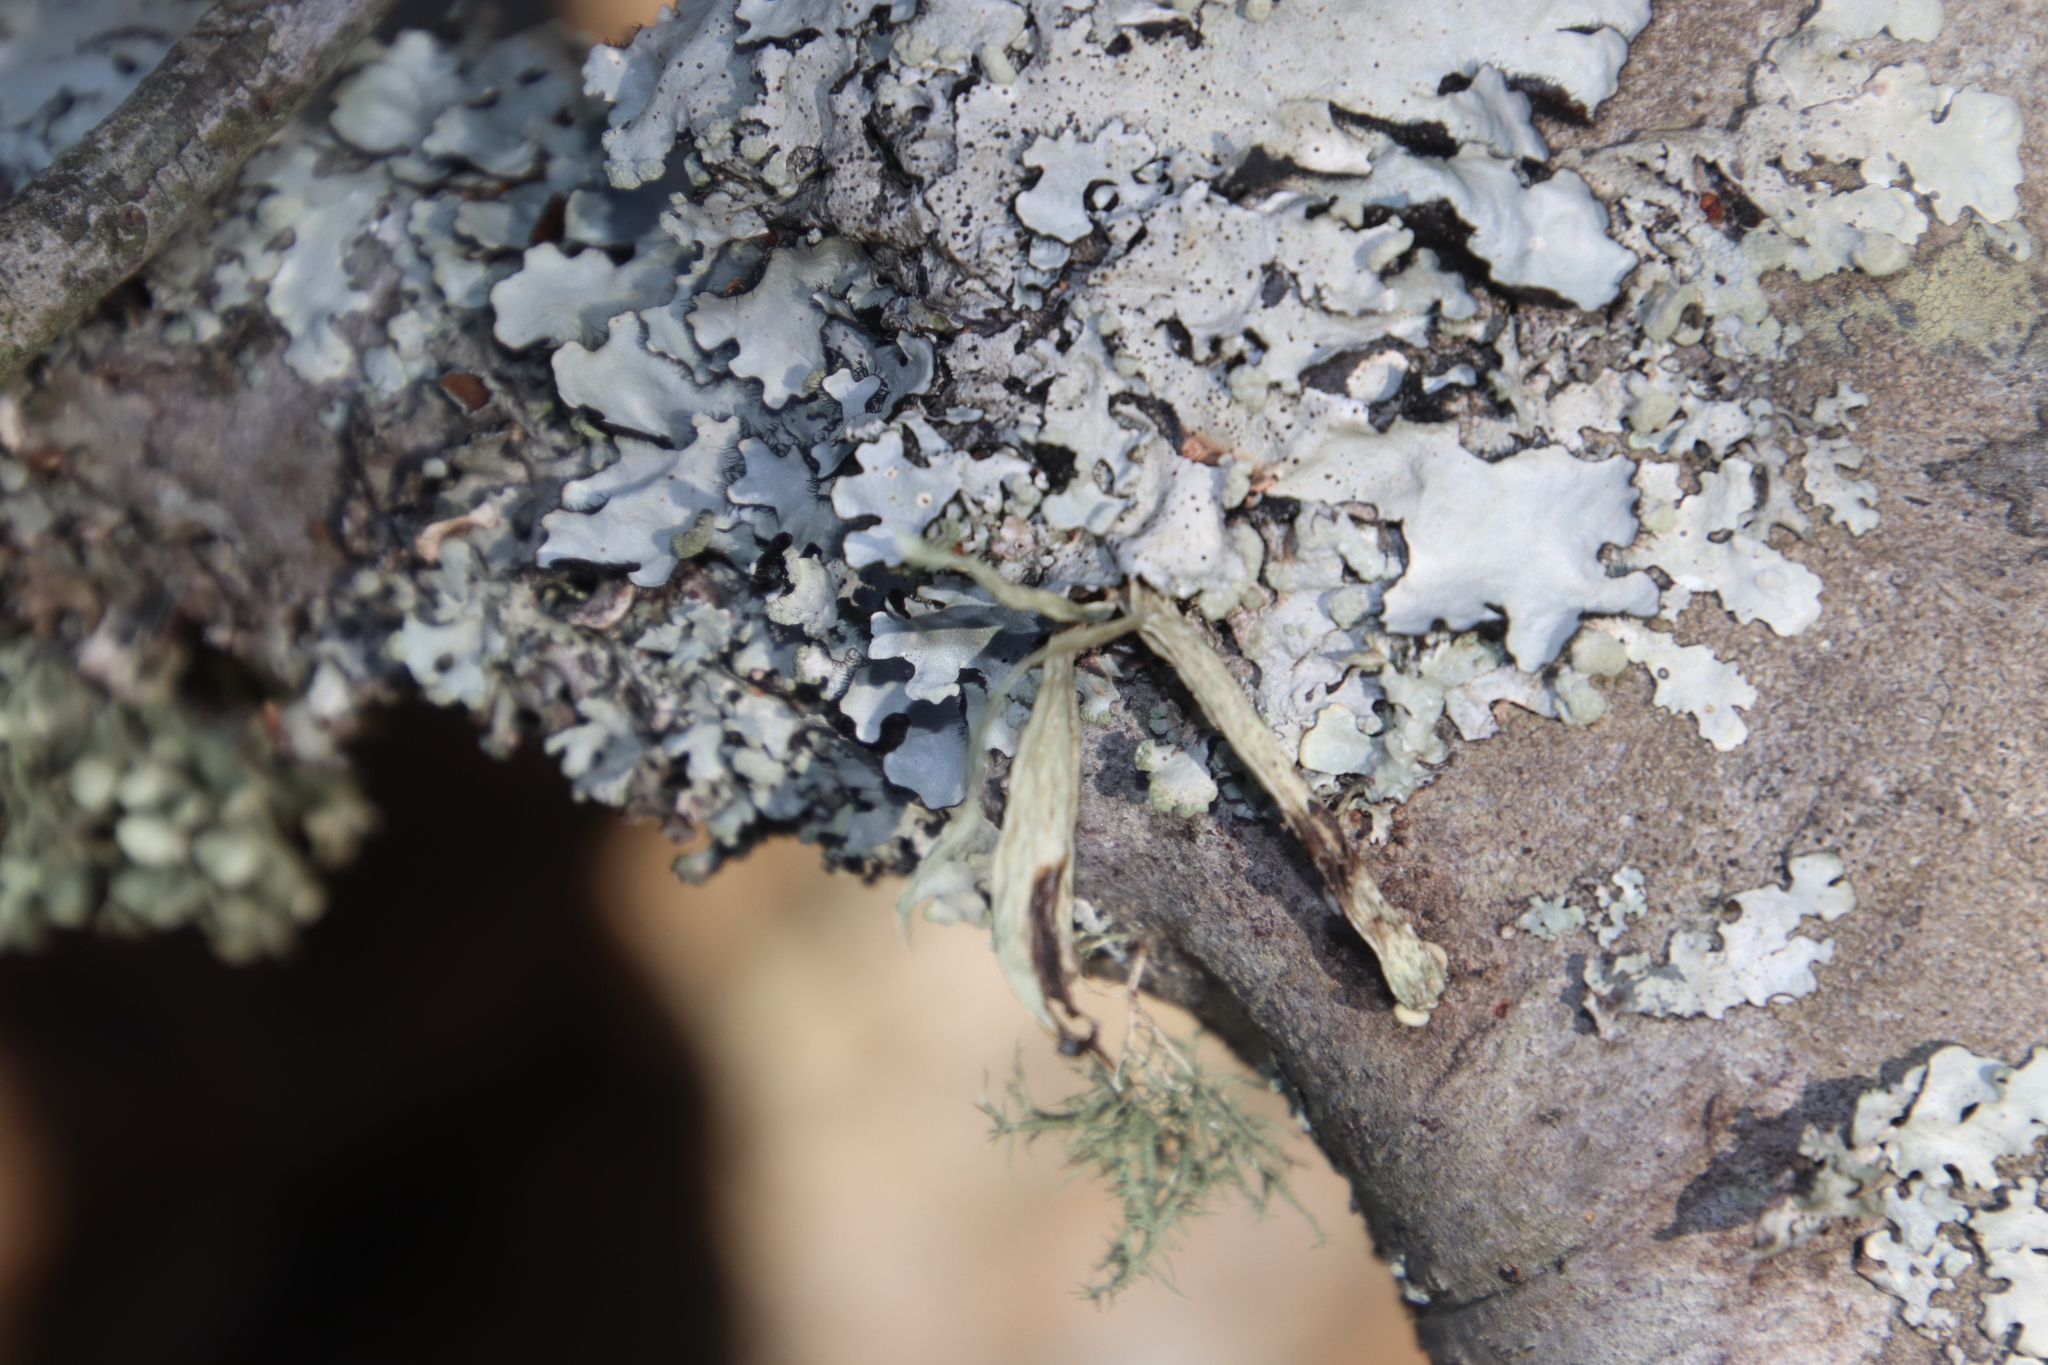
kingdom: Fungi
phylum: Ascomycota
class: Lecanoromycetes
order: Lecanorales
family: Ramalinaceae
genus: Ramalina
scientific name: Ramalina celastri
